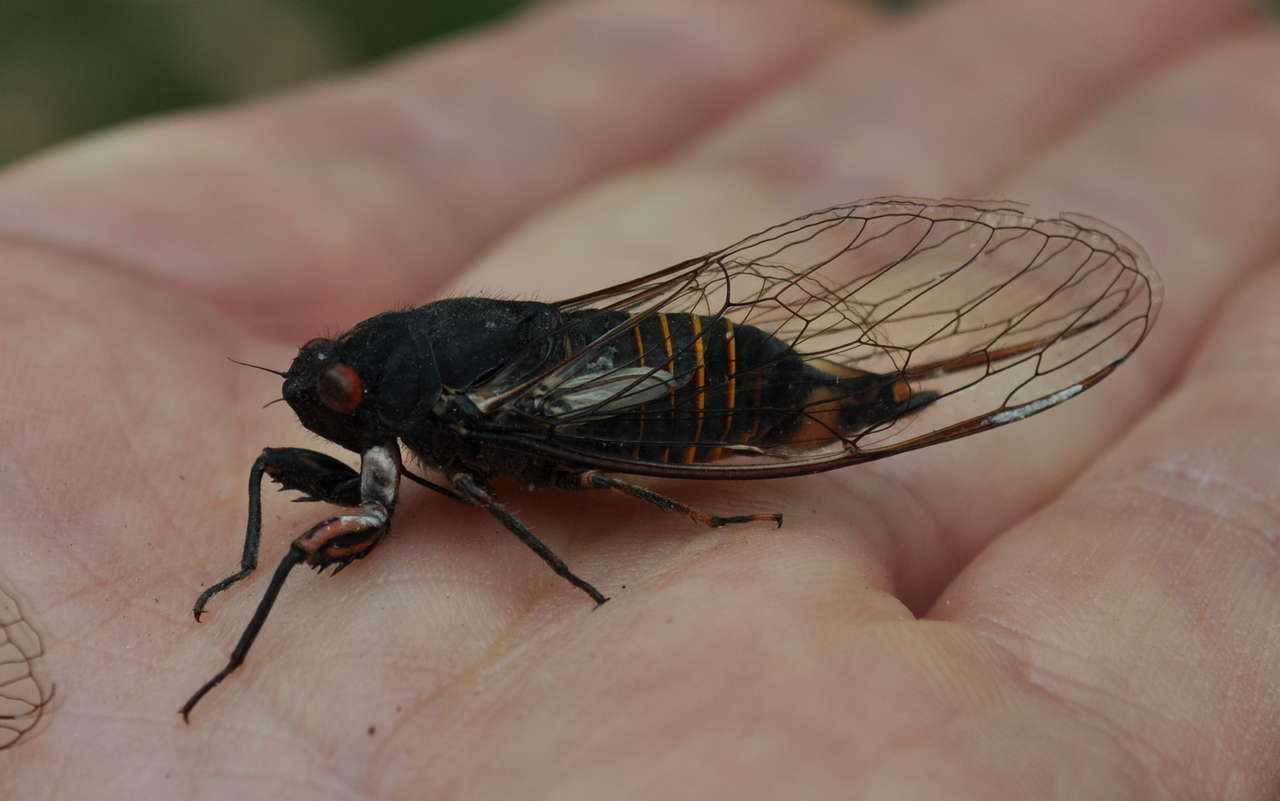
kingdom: Animalia
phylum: Arthropoda
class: Insecta
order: Hemiptera
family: Cicadidae
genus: Yoyetta
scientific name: Yoyetta grandis
